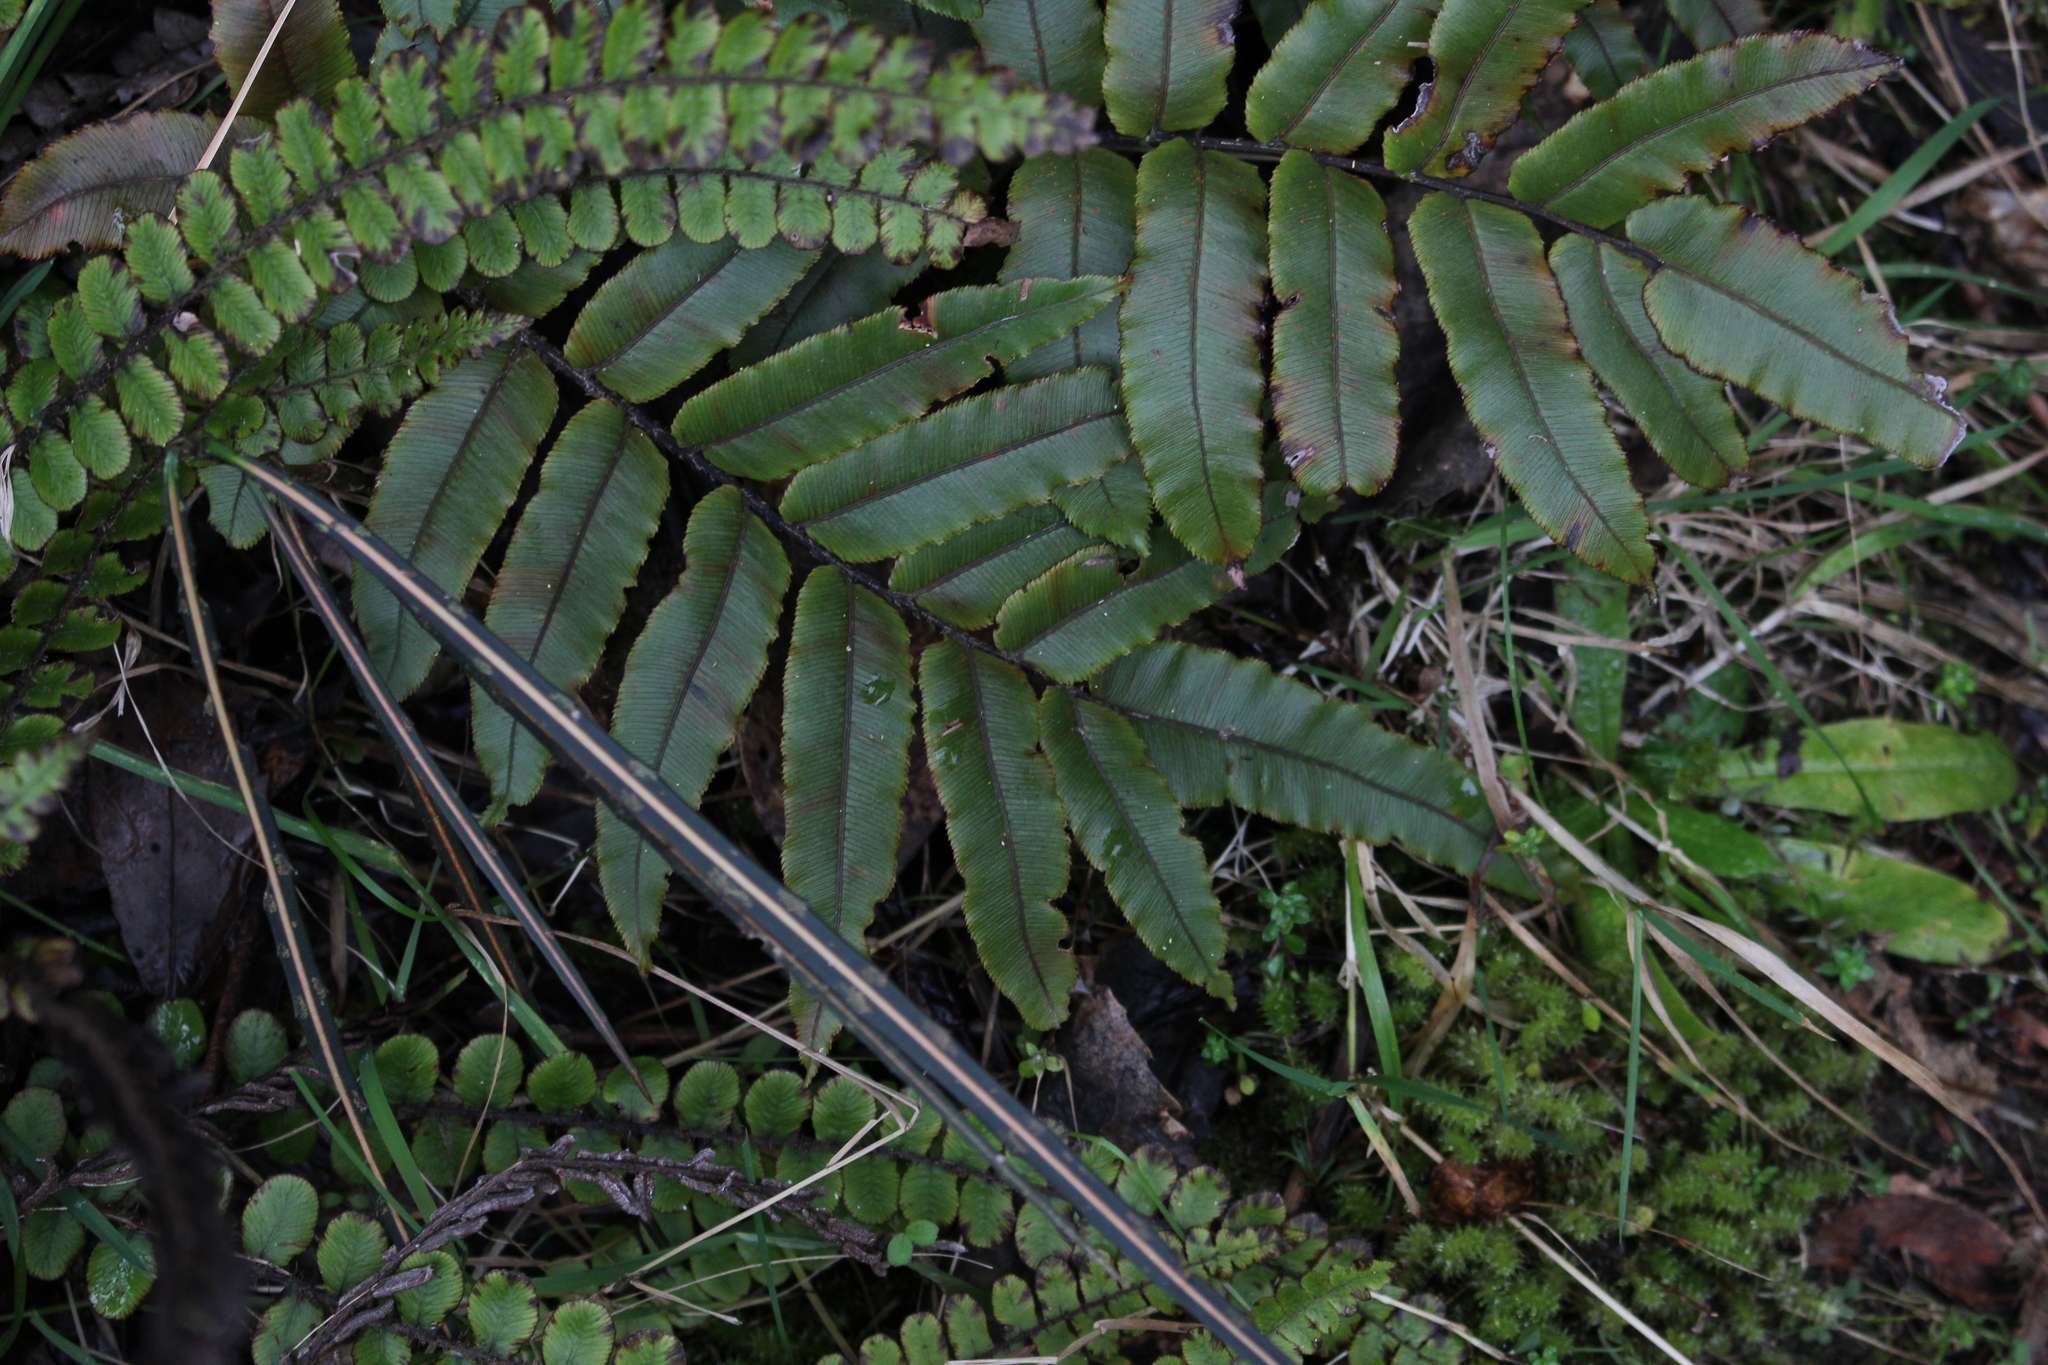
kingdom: Plantae
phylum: Tracheophyta
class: Polypodiopsida
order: Polypodiales
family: Blechnaceae
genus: Parablechnum
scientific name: Parablechnum procerum
